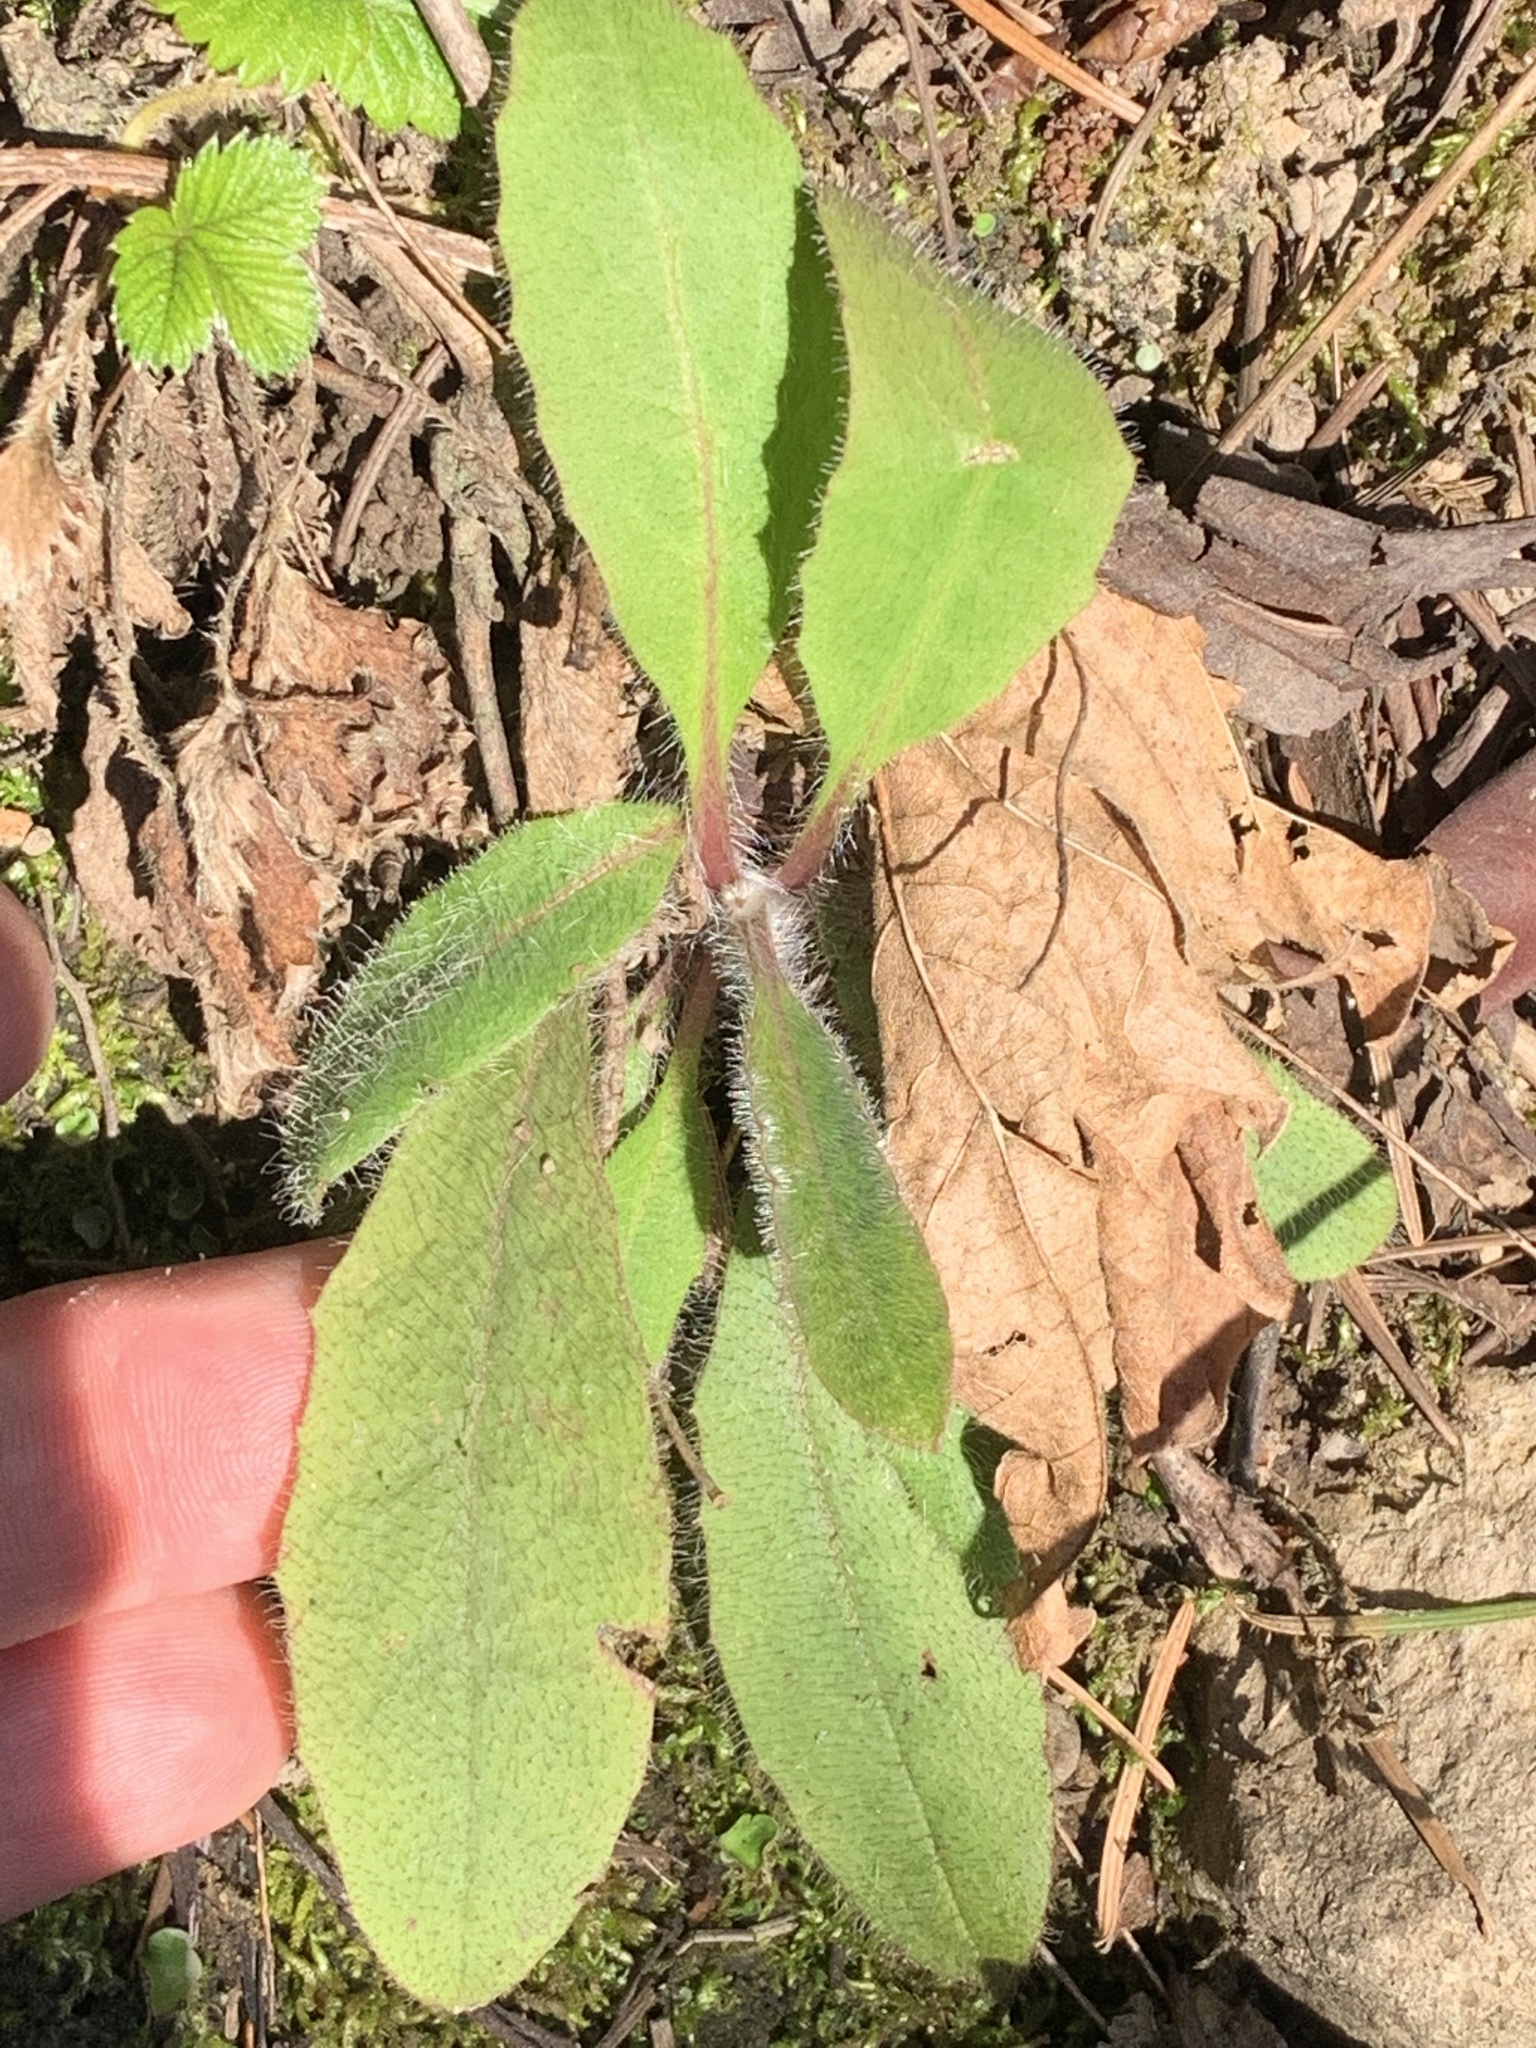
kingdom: Plantae
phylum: Tracheophyta
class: Magnoliopsida
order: Asterales
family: Asteraceae
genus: Hieracium
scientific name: Hieracium albiflorum
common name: White hawkweed
